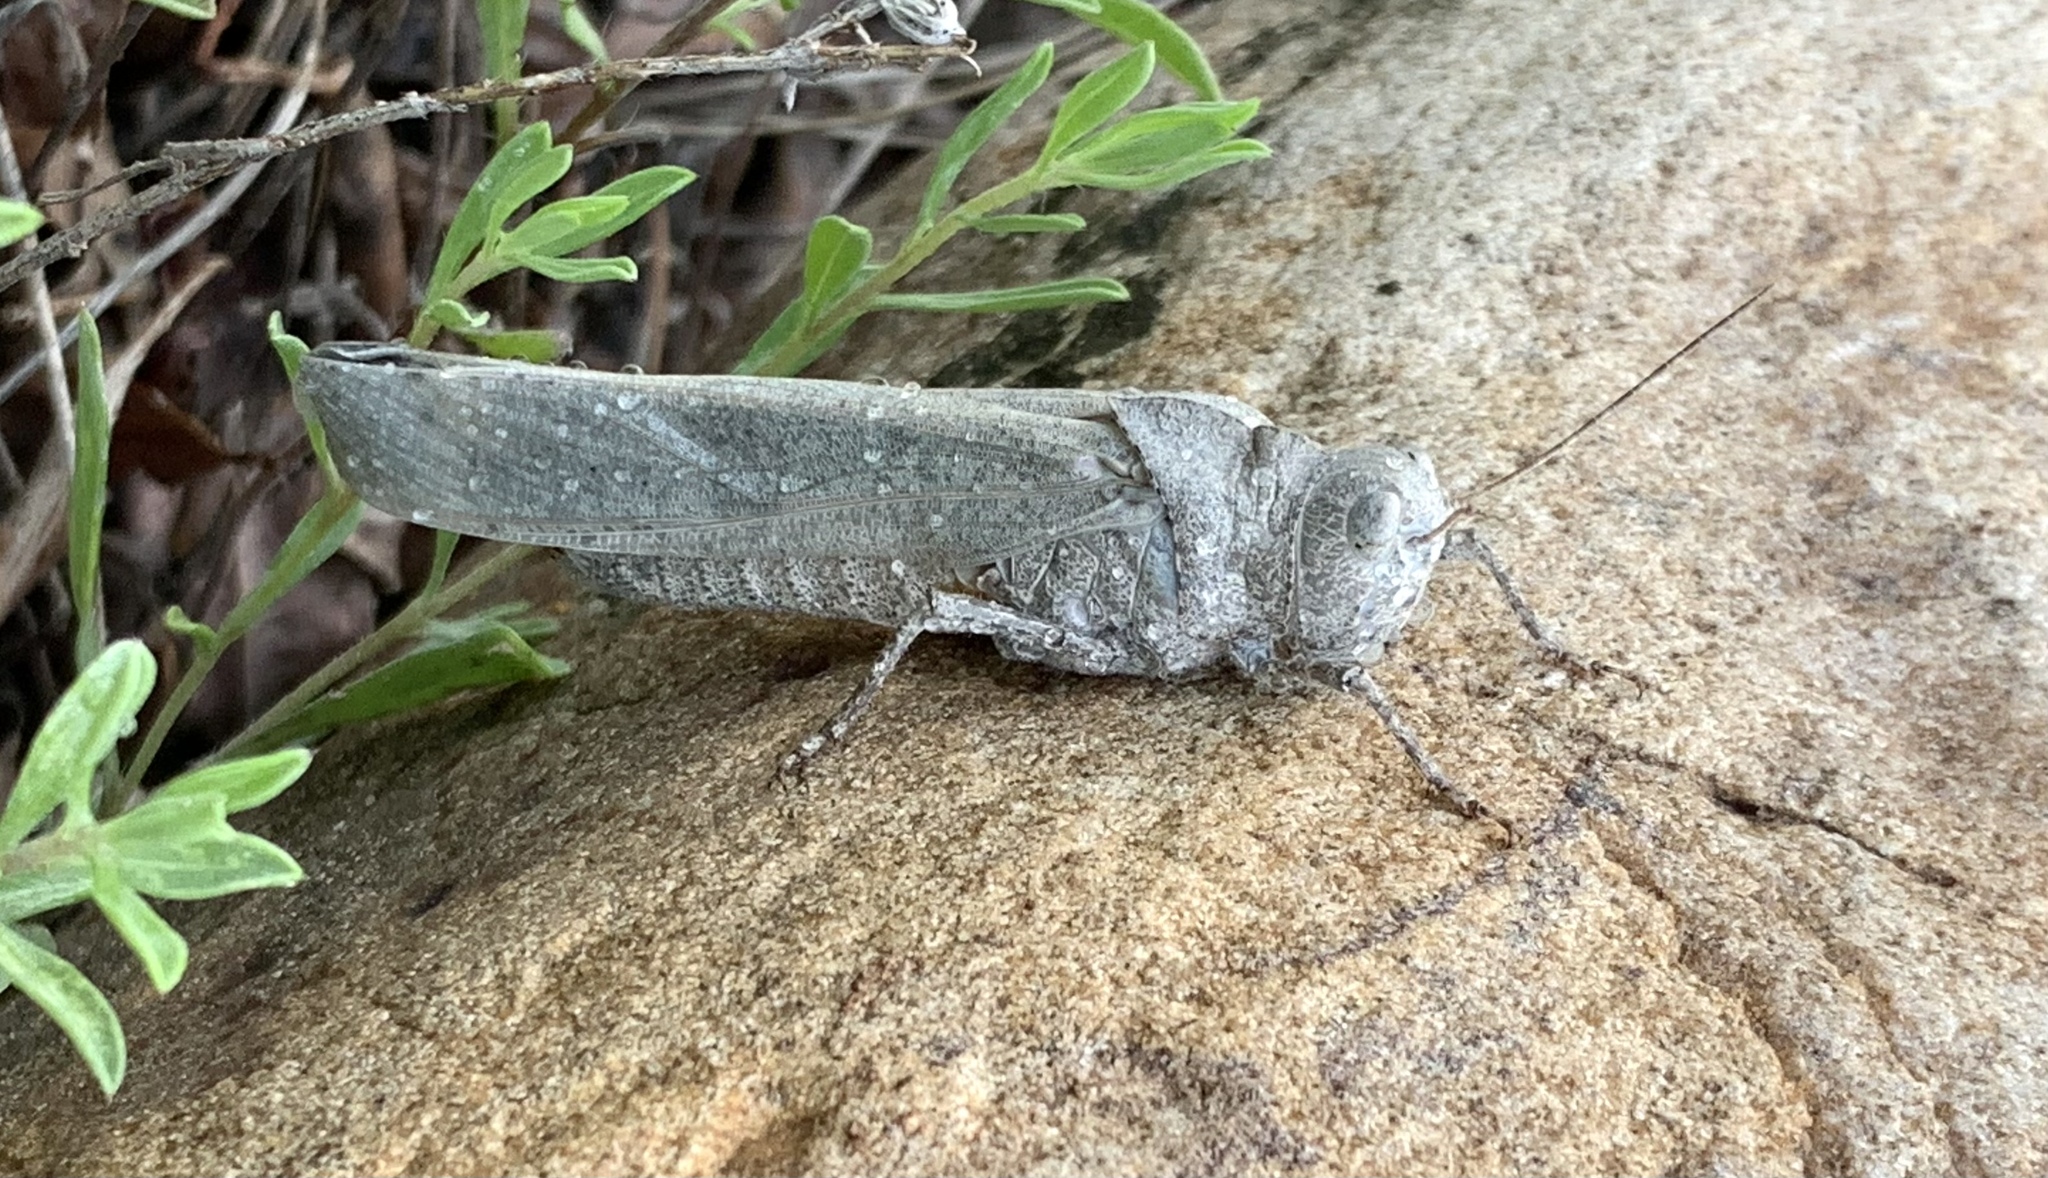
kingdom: Animalia
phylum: Arthropoda
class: Insecta
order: Orthoptera
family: Acrididae
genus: Dissosteira
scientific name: Dissosteira carolina
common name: Carolina grasshopper
